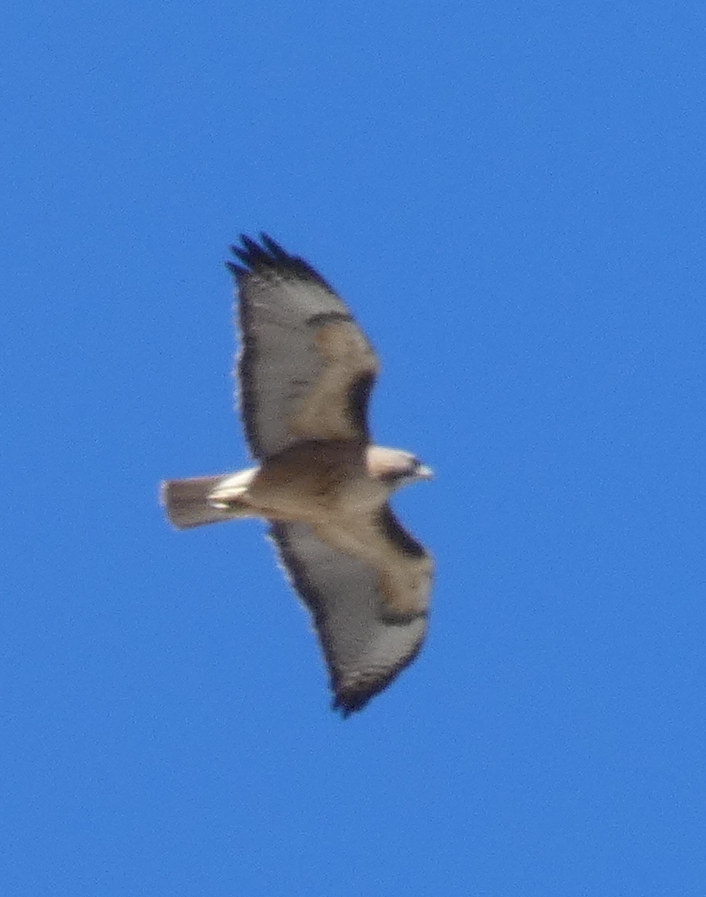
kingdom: Animalia
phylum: Chordata
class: Aves
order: Accipitriformes
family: Accipitridae
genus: Buteo
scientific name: Buteo jamaicensis
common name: Red-tailed hawk
